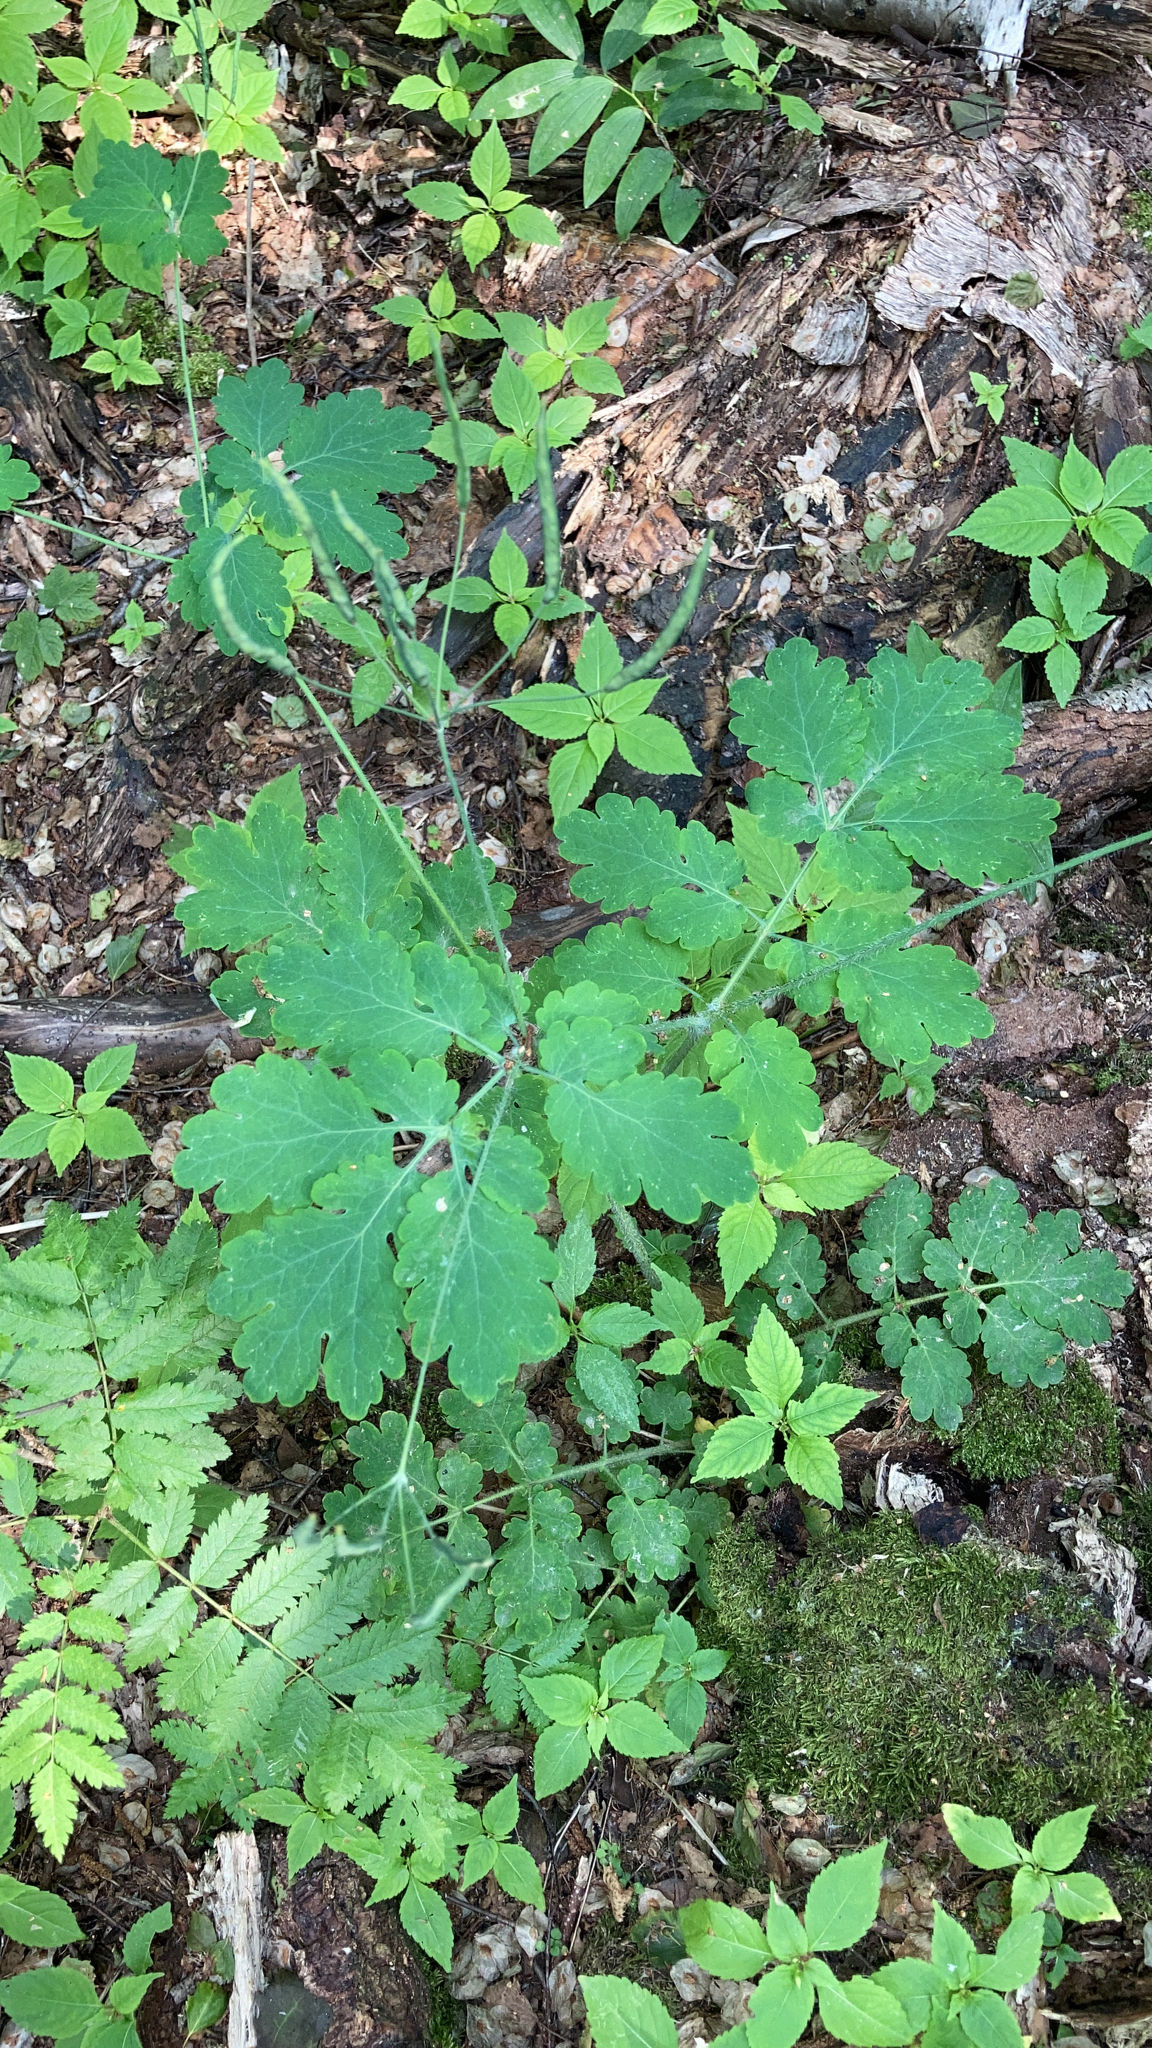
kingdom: Plantae
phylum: Tracheophyta
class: Magnoliopsida
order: Ranunculales
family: Papaveraceae
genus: Chelidonium
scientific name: Chelidonium majus
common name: Greater celandine
